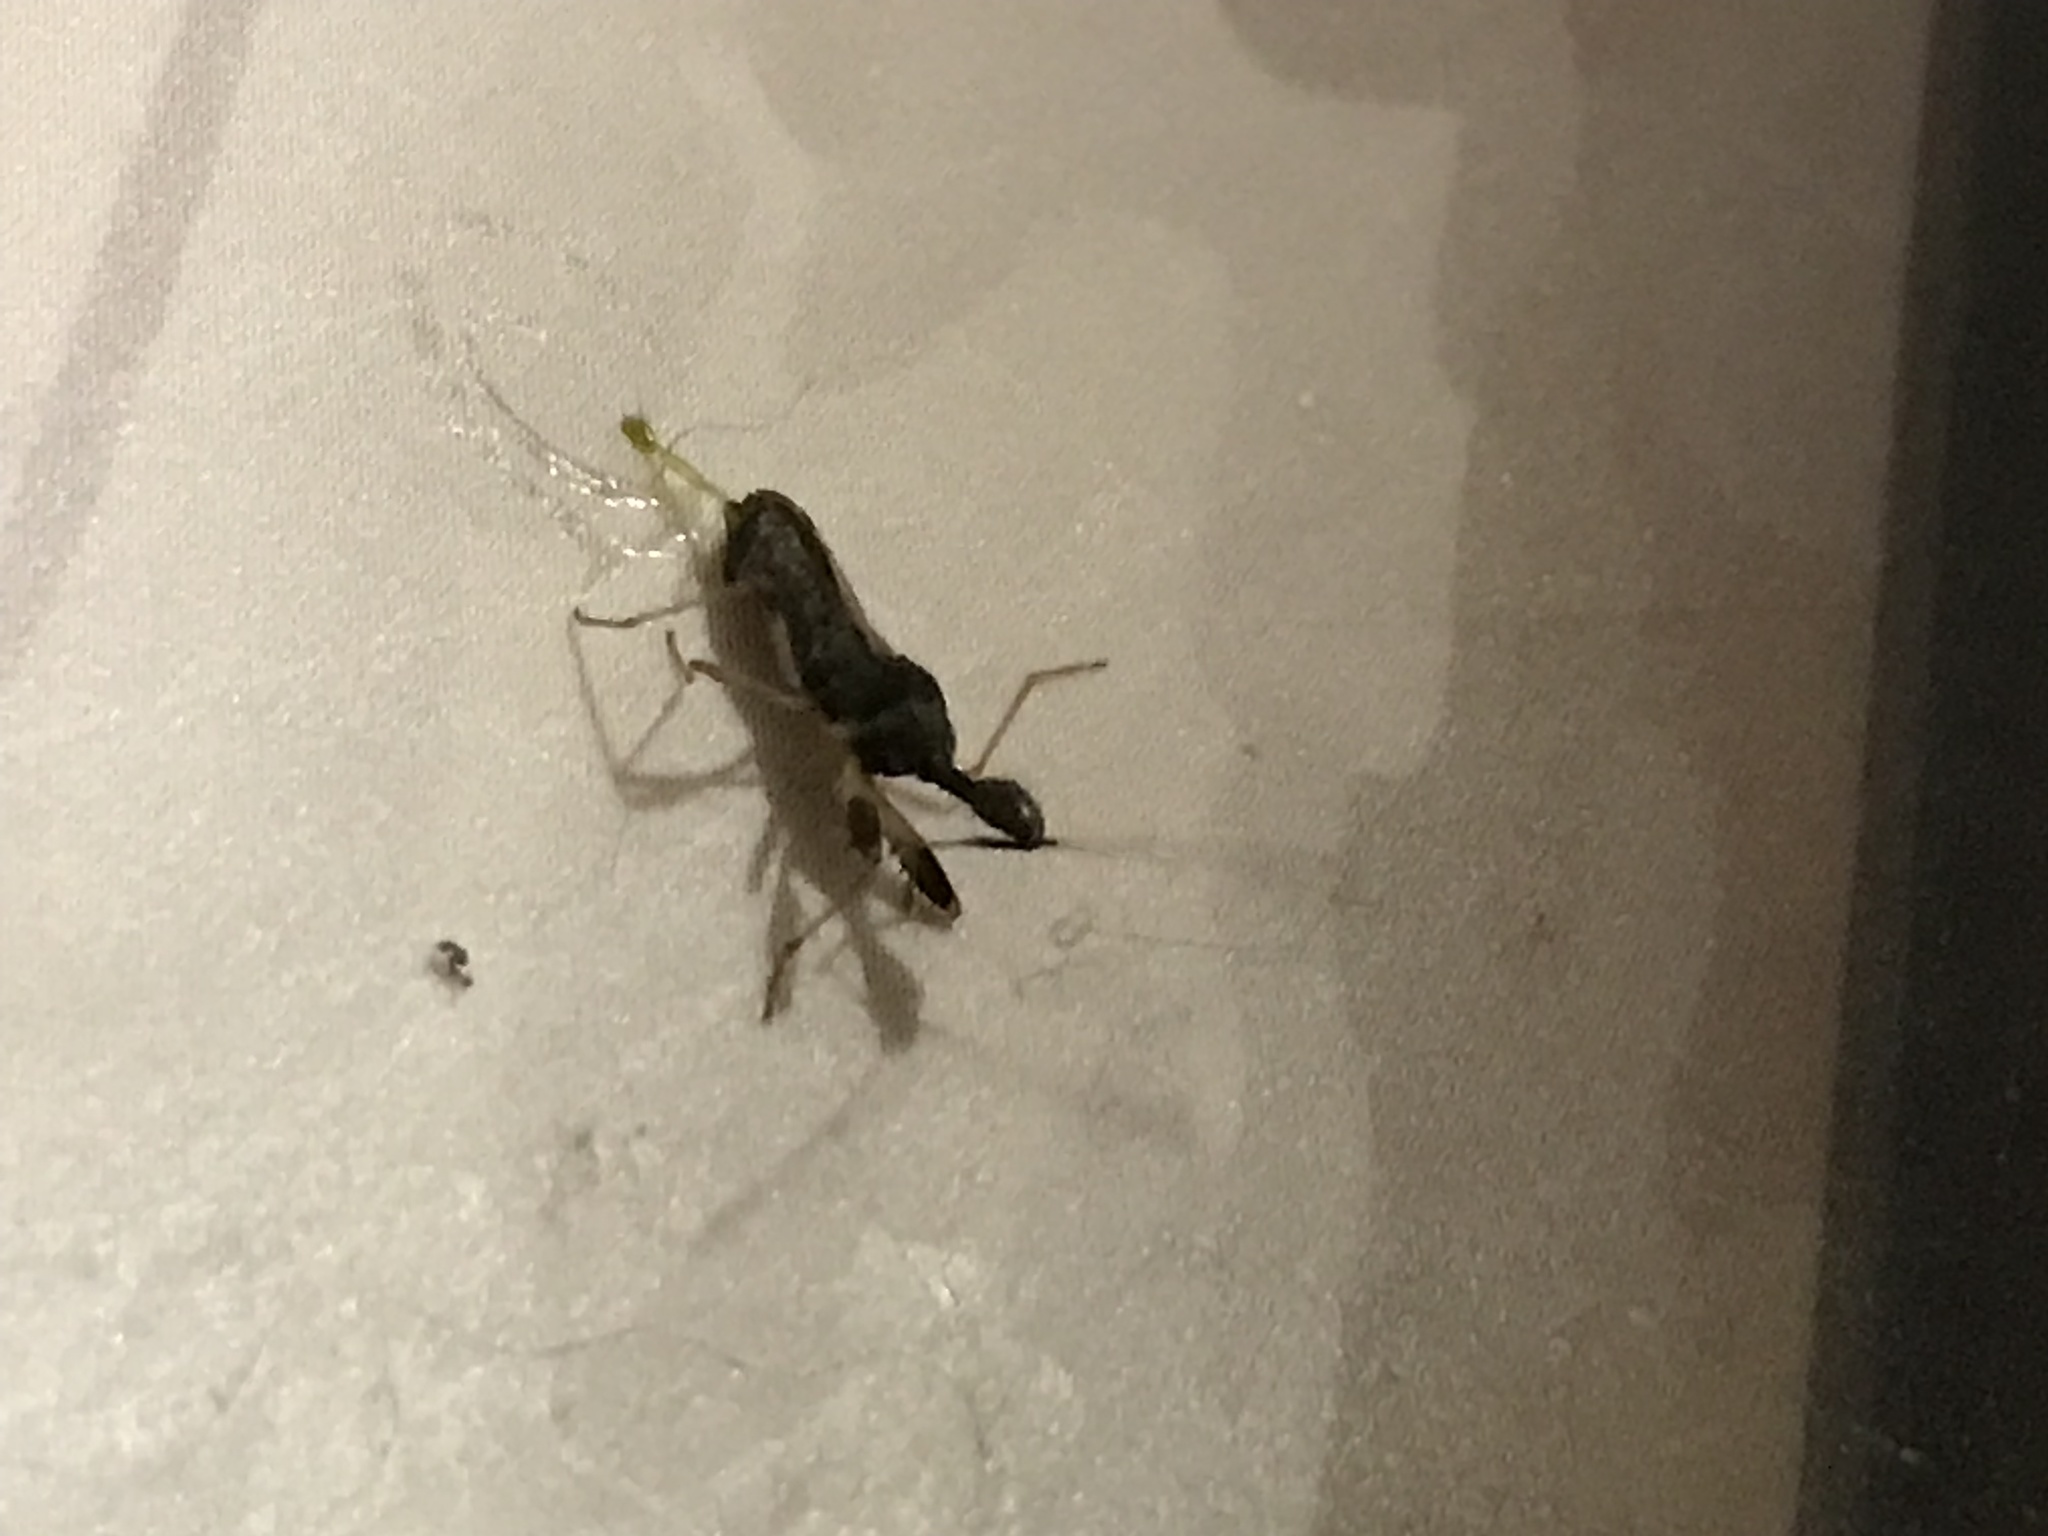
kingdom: Animalia
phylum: Arthropoda
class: Insecta
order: Hemiptera
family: Rhyparochromidae
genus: Myodocha
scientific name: Myodocha serripes
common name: Long-necked seed bug
